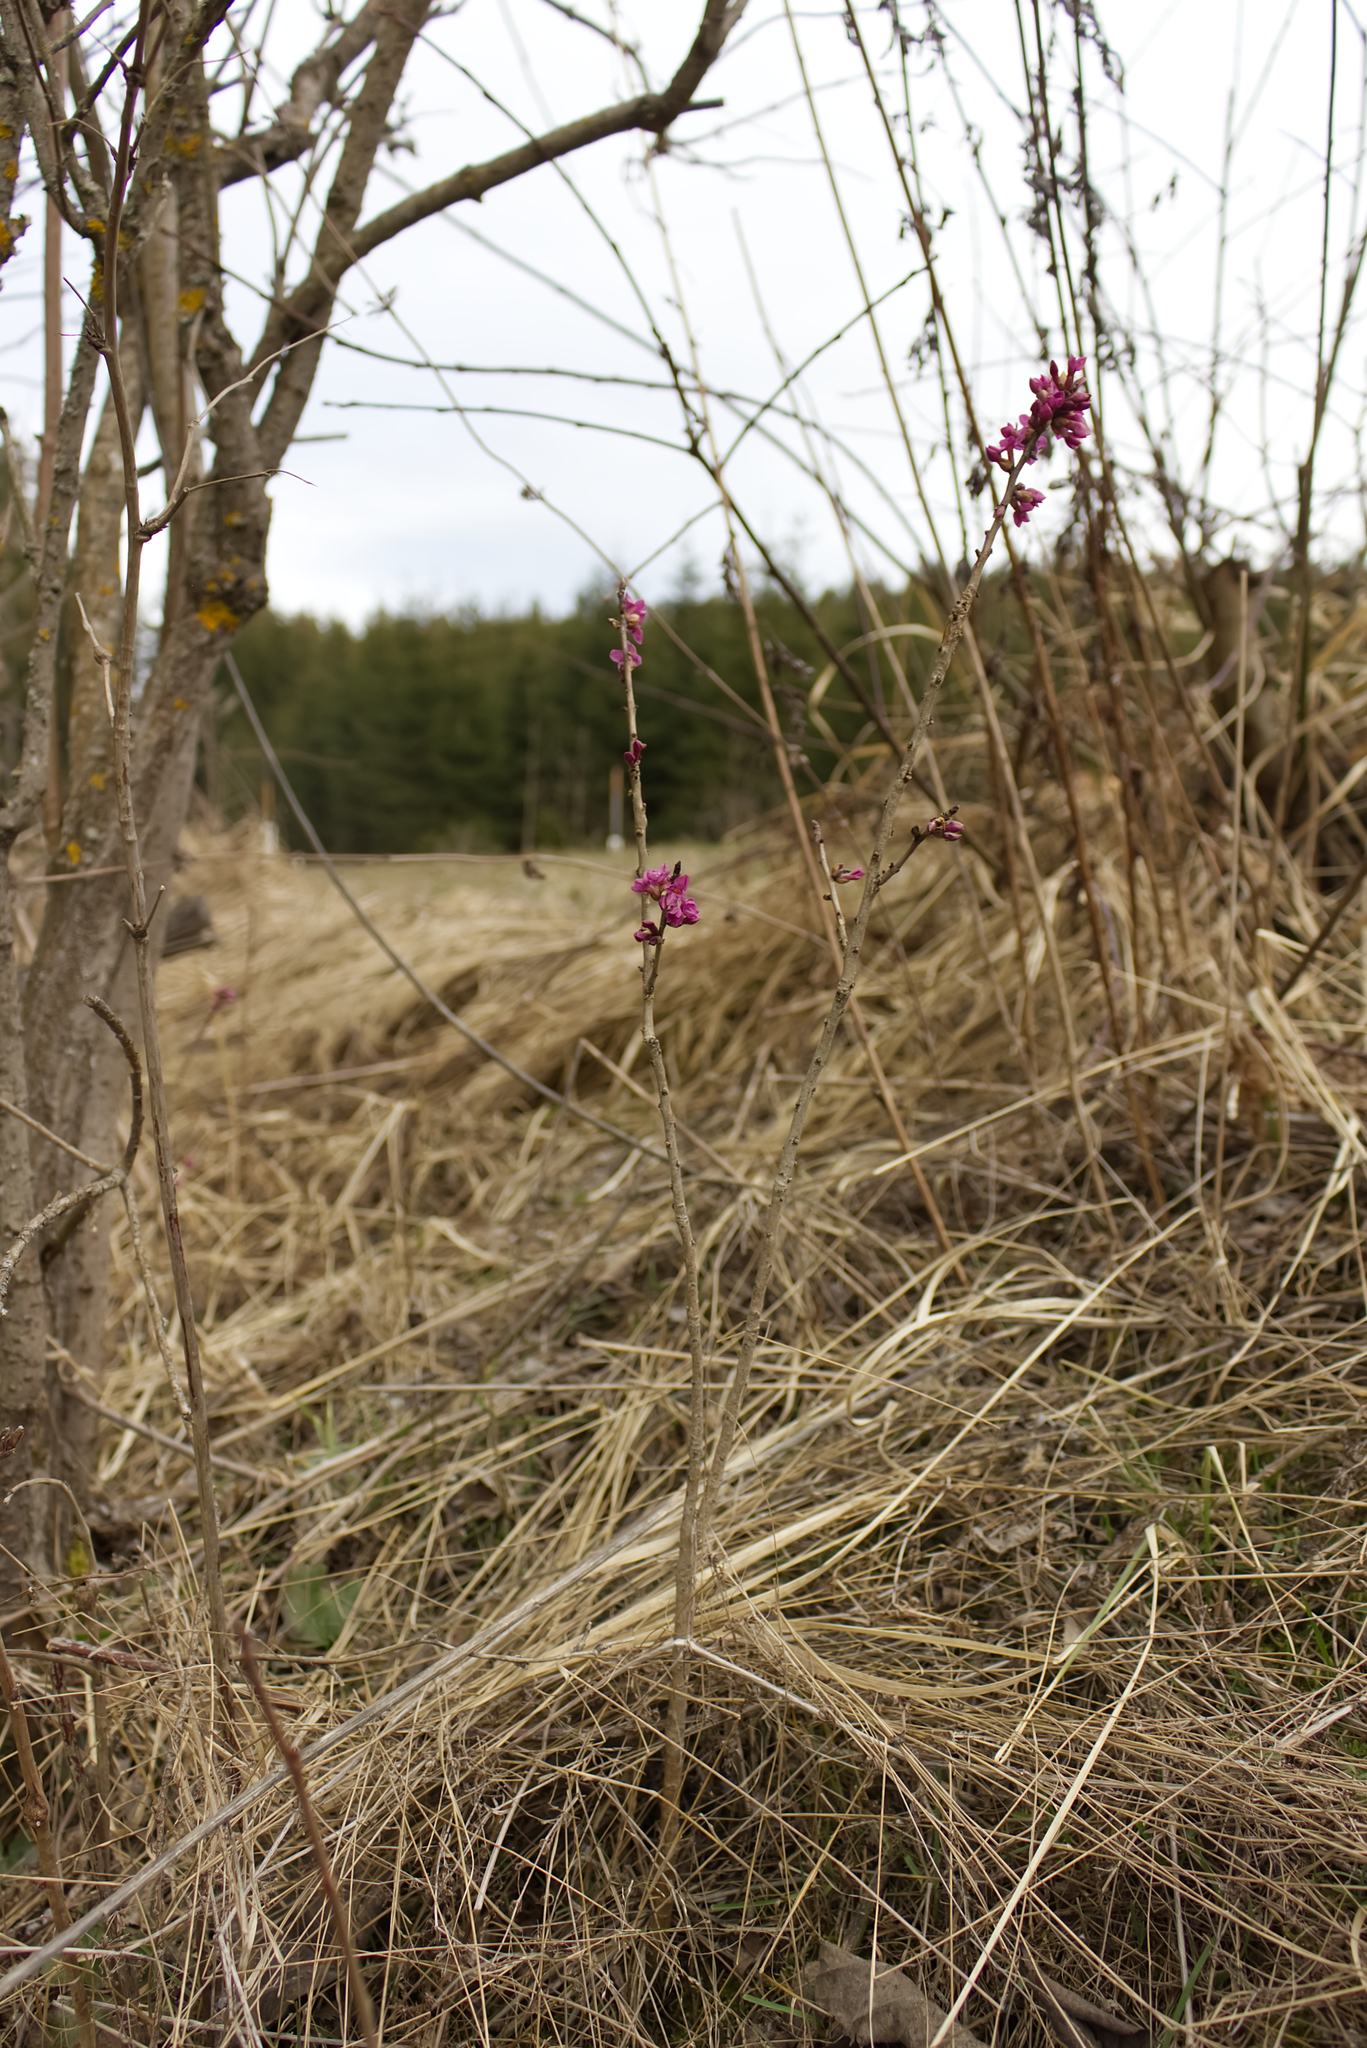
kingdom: Plantae
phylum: Tracheophyta
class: Magnoliopsida
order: Malvales
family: Thymelaeaceae
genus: Daphne
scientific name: Daphne mezereum
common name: Mezereon
